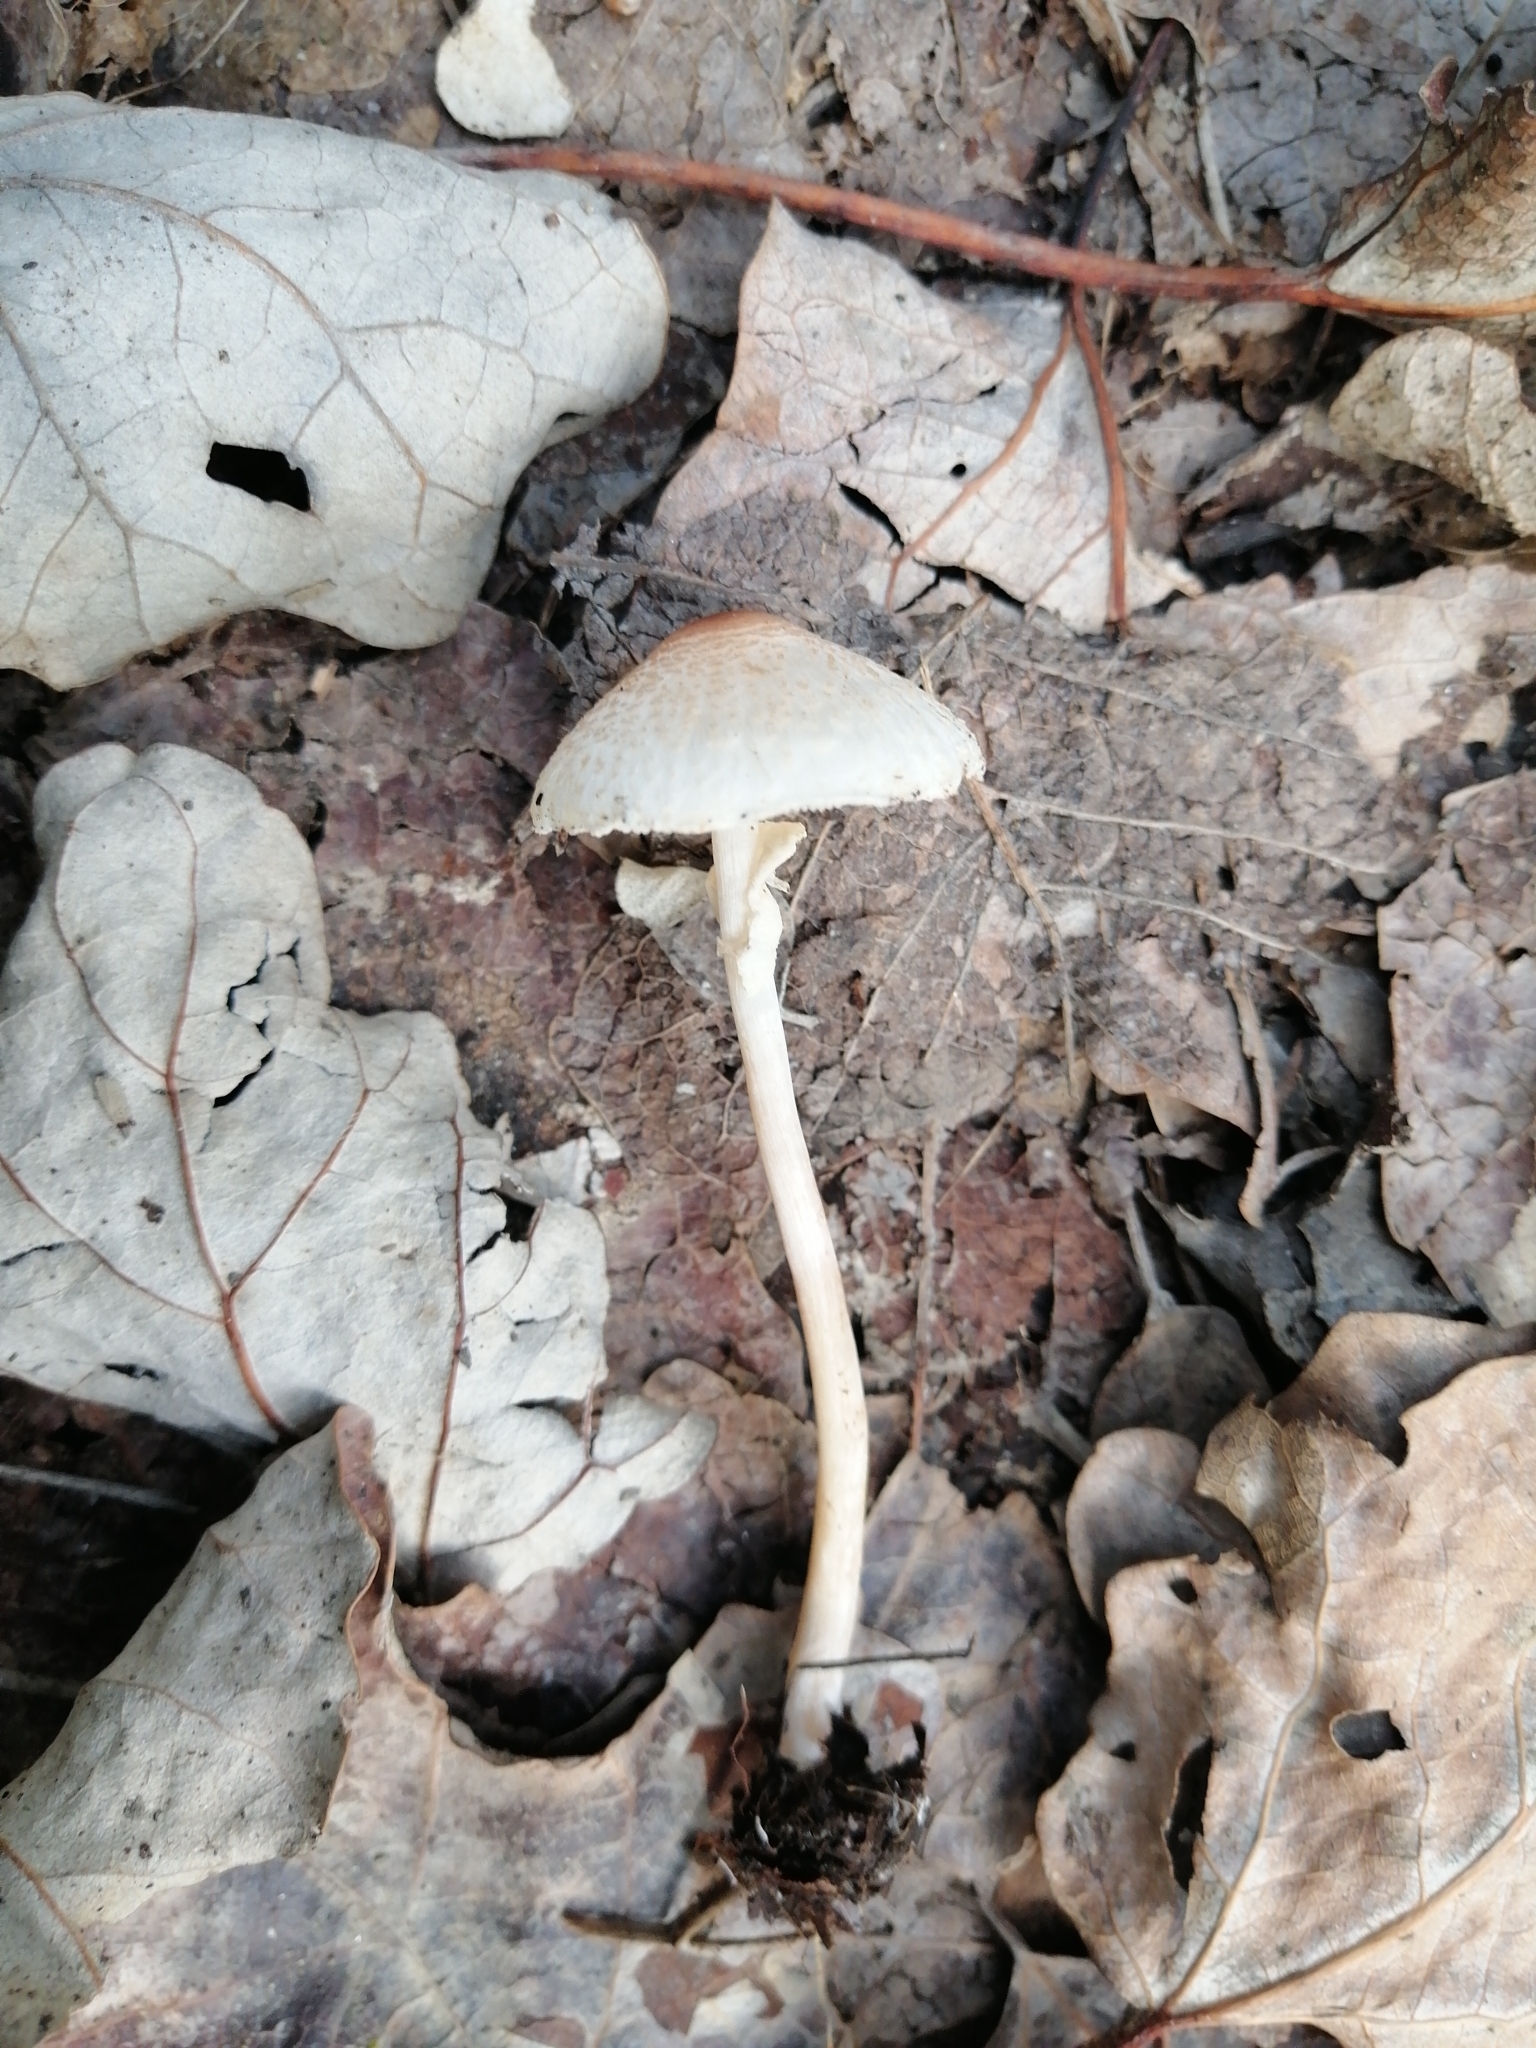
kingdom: Fungi
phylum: Basidiomycota
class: Agaricomycetes
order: Agaricales
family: Agaricaceae
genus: Lepiota
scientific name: Lepiota cristata
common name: Stinking dapperling
